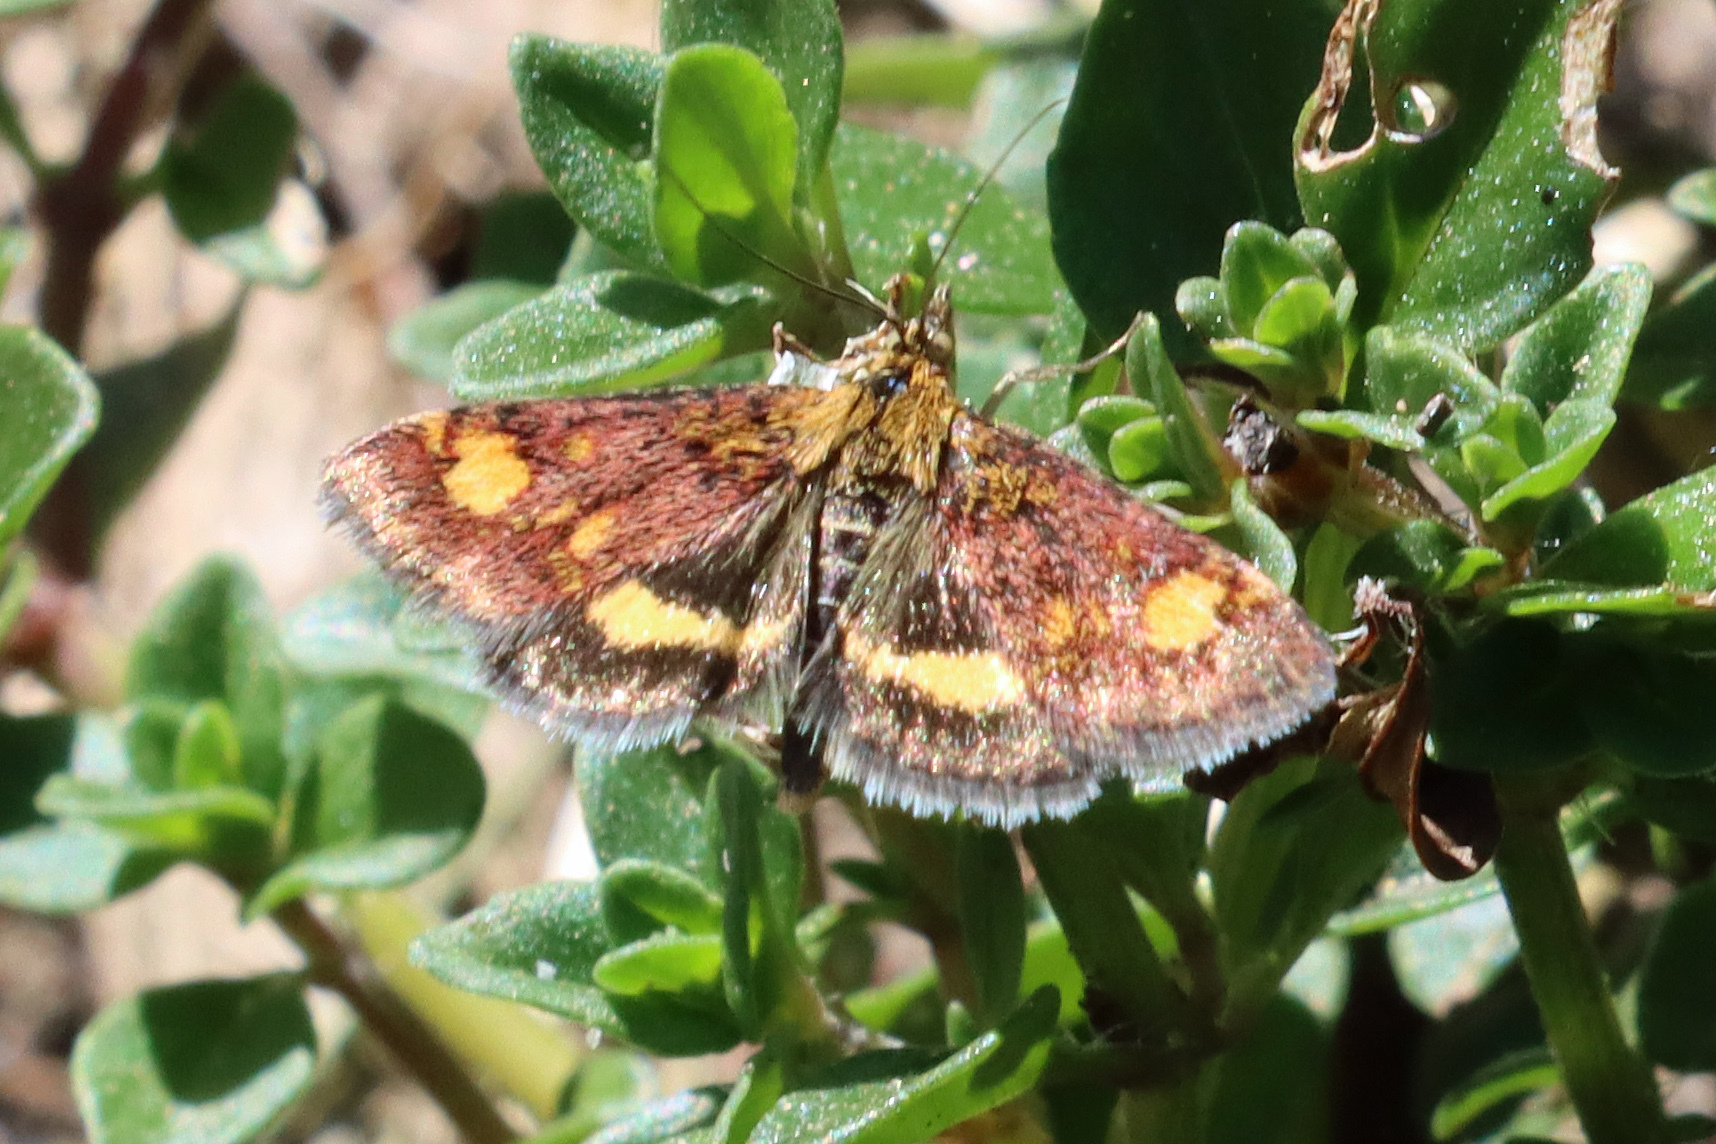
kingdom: Animalia
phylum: Arthropoda
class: Insecta
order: Lepidoptera
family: Crambidae
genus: Pyrausta
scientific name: Pyrausta aurata
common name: Small purple & gold
